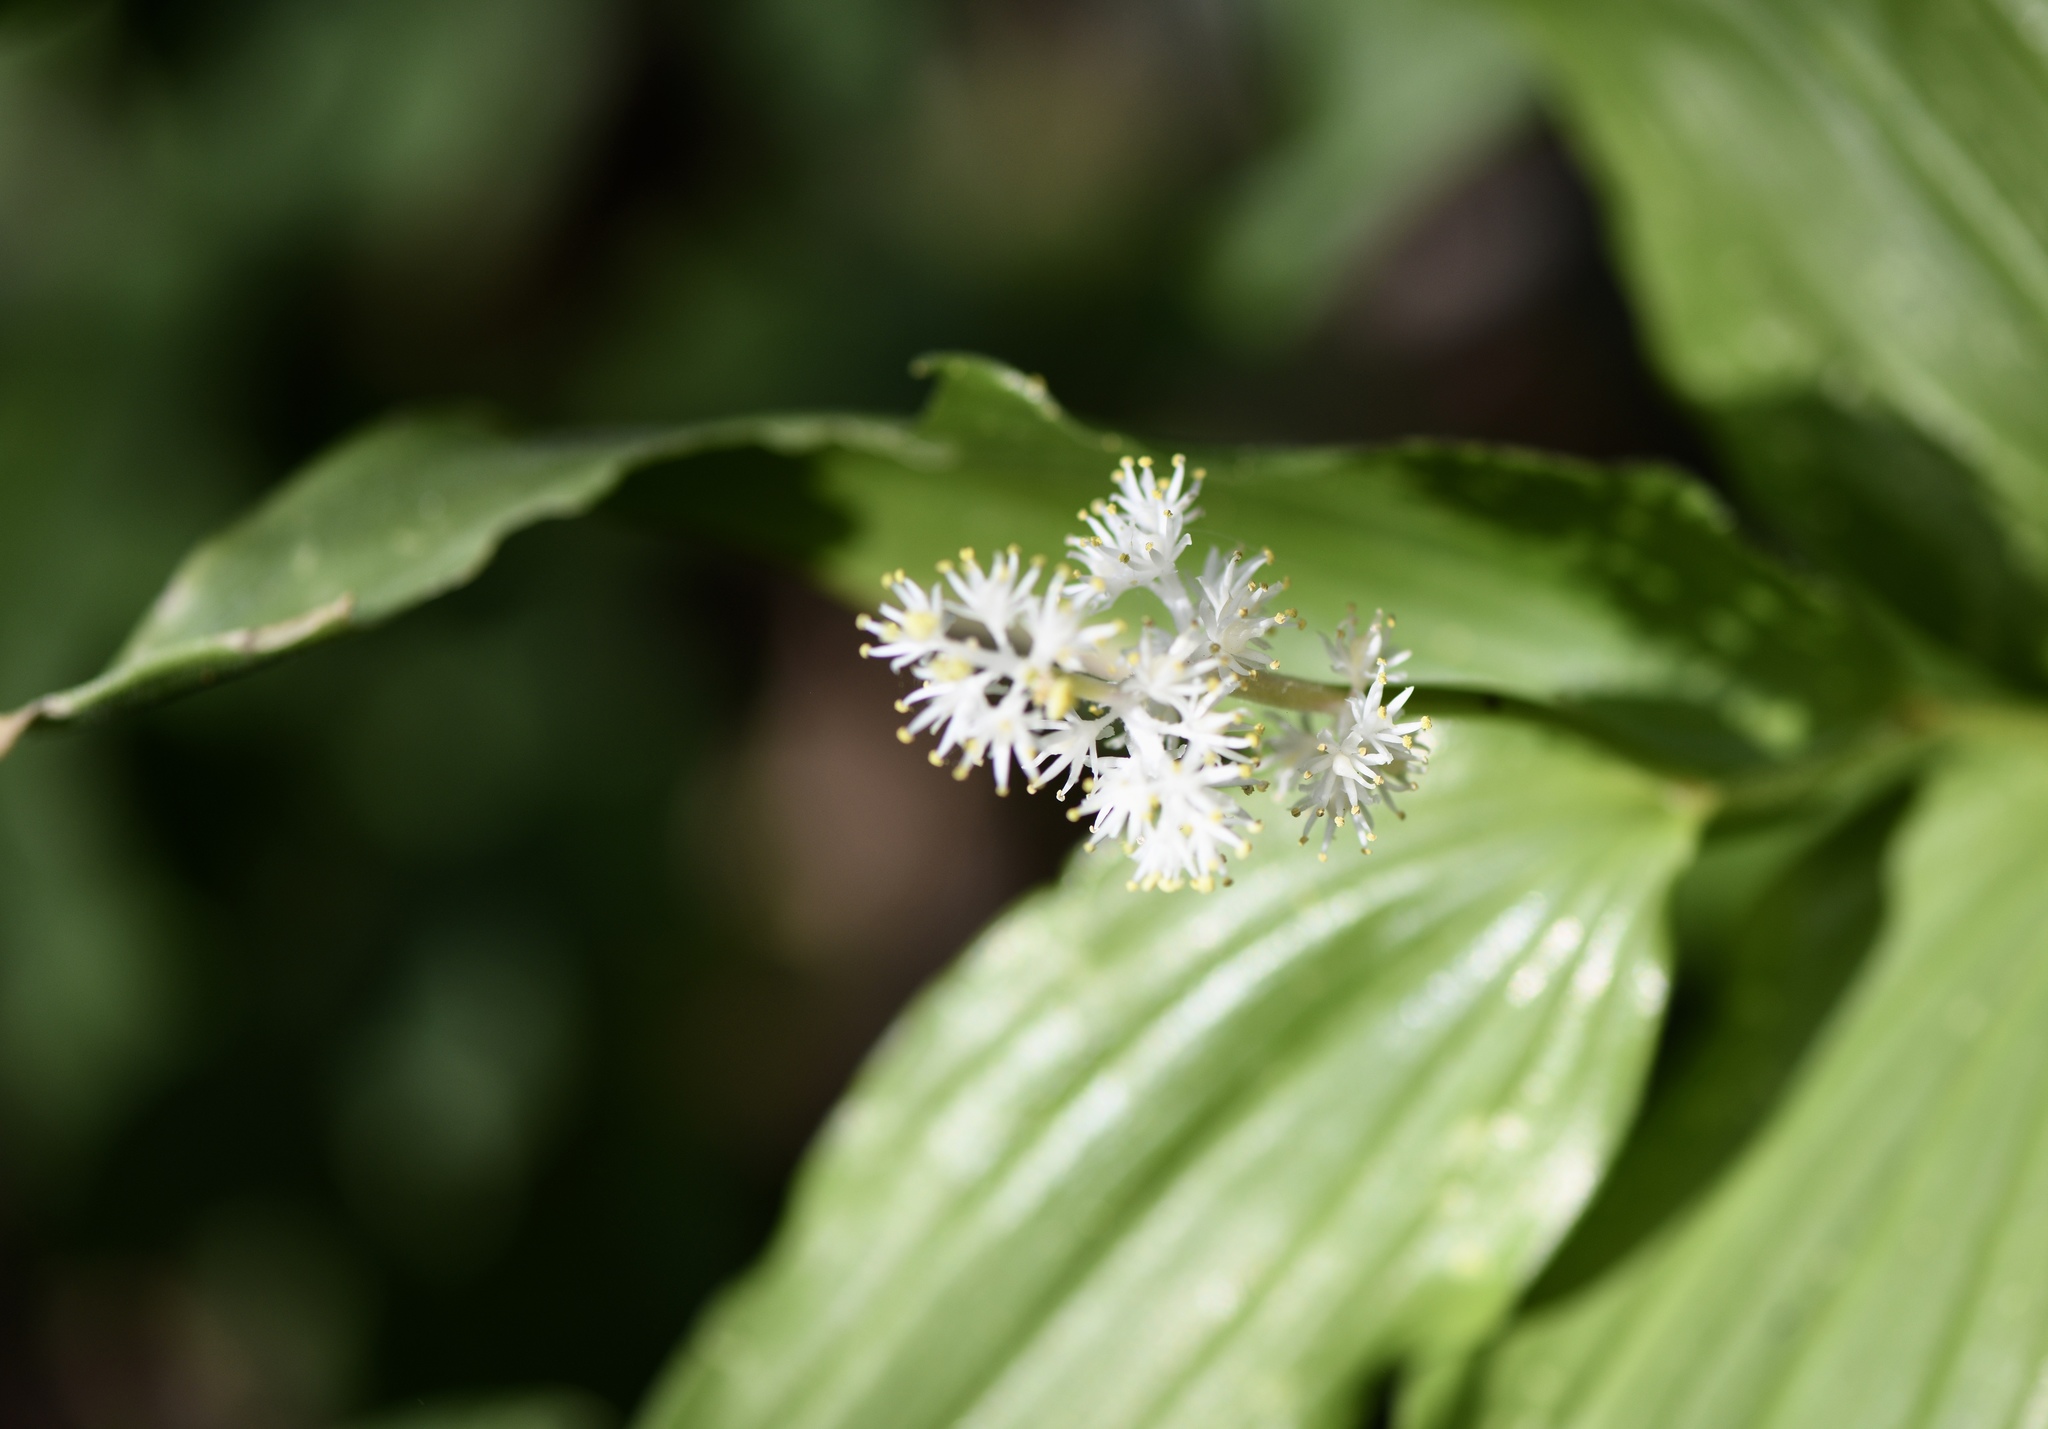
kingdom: Plantae
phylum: Tracheophyta
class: Liliopsida
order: Asparagales
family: Asparagaceae
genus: Maianthemum
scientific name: Maianthemum racemosum
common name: False spikenard
